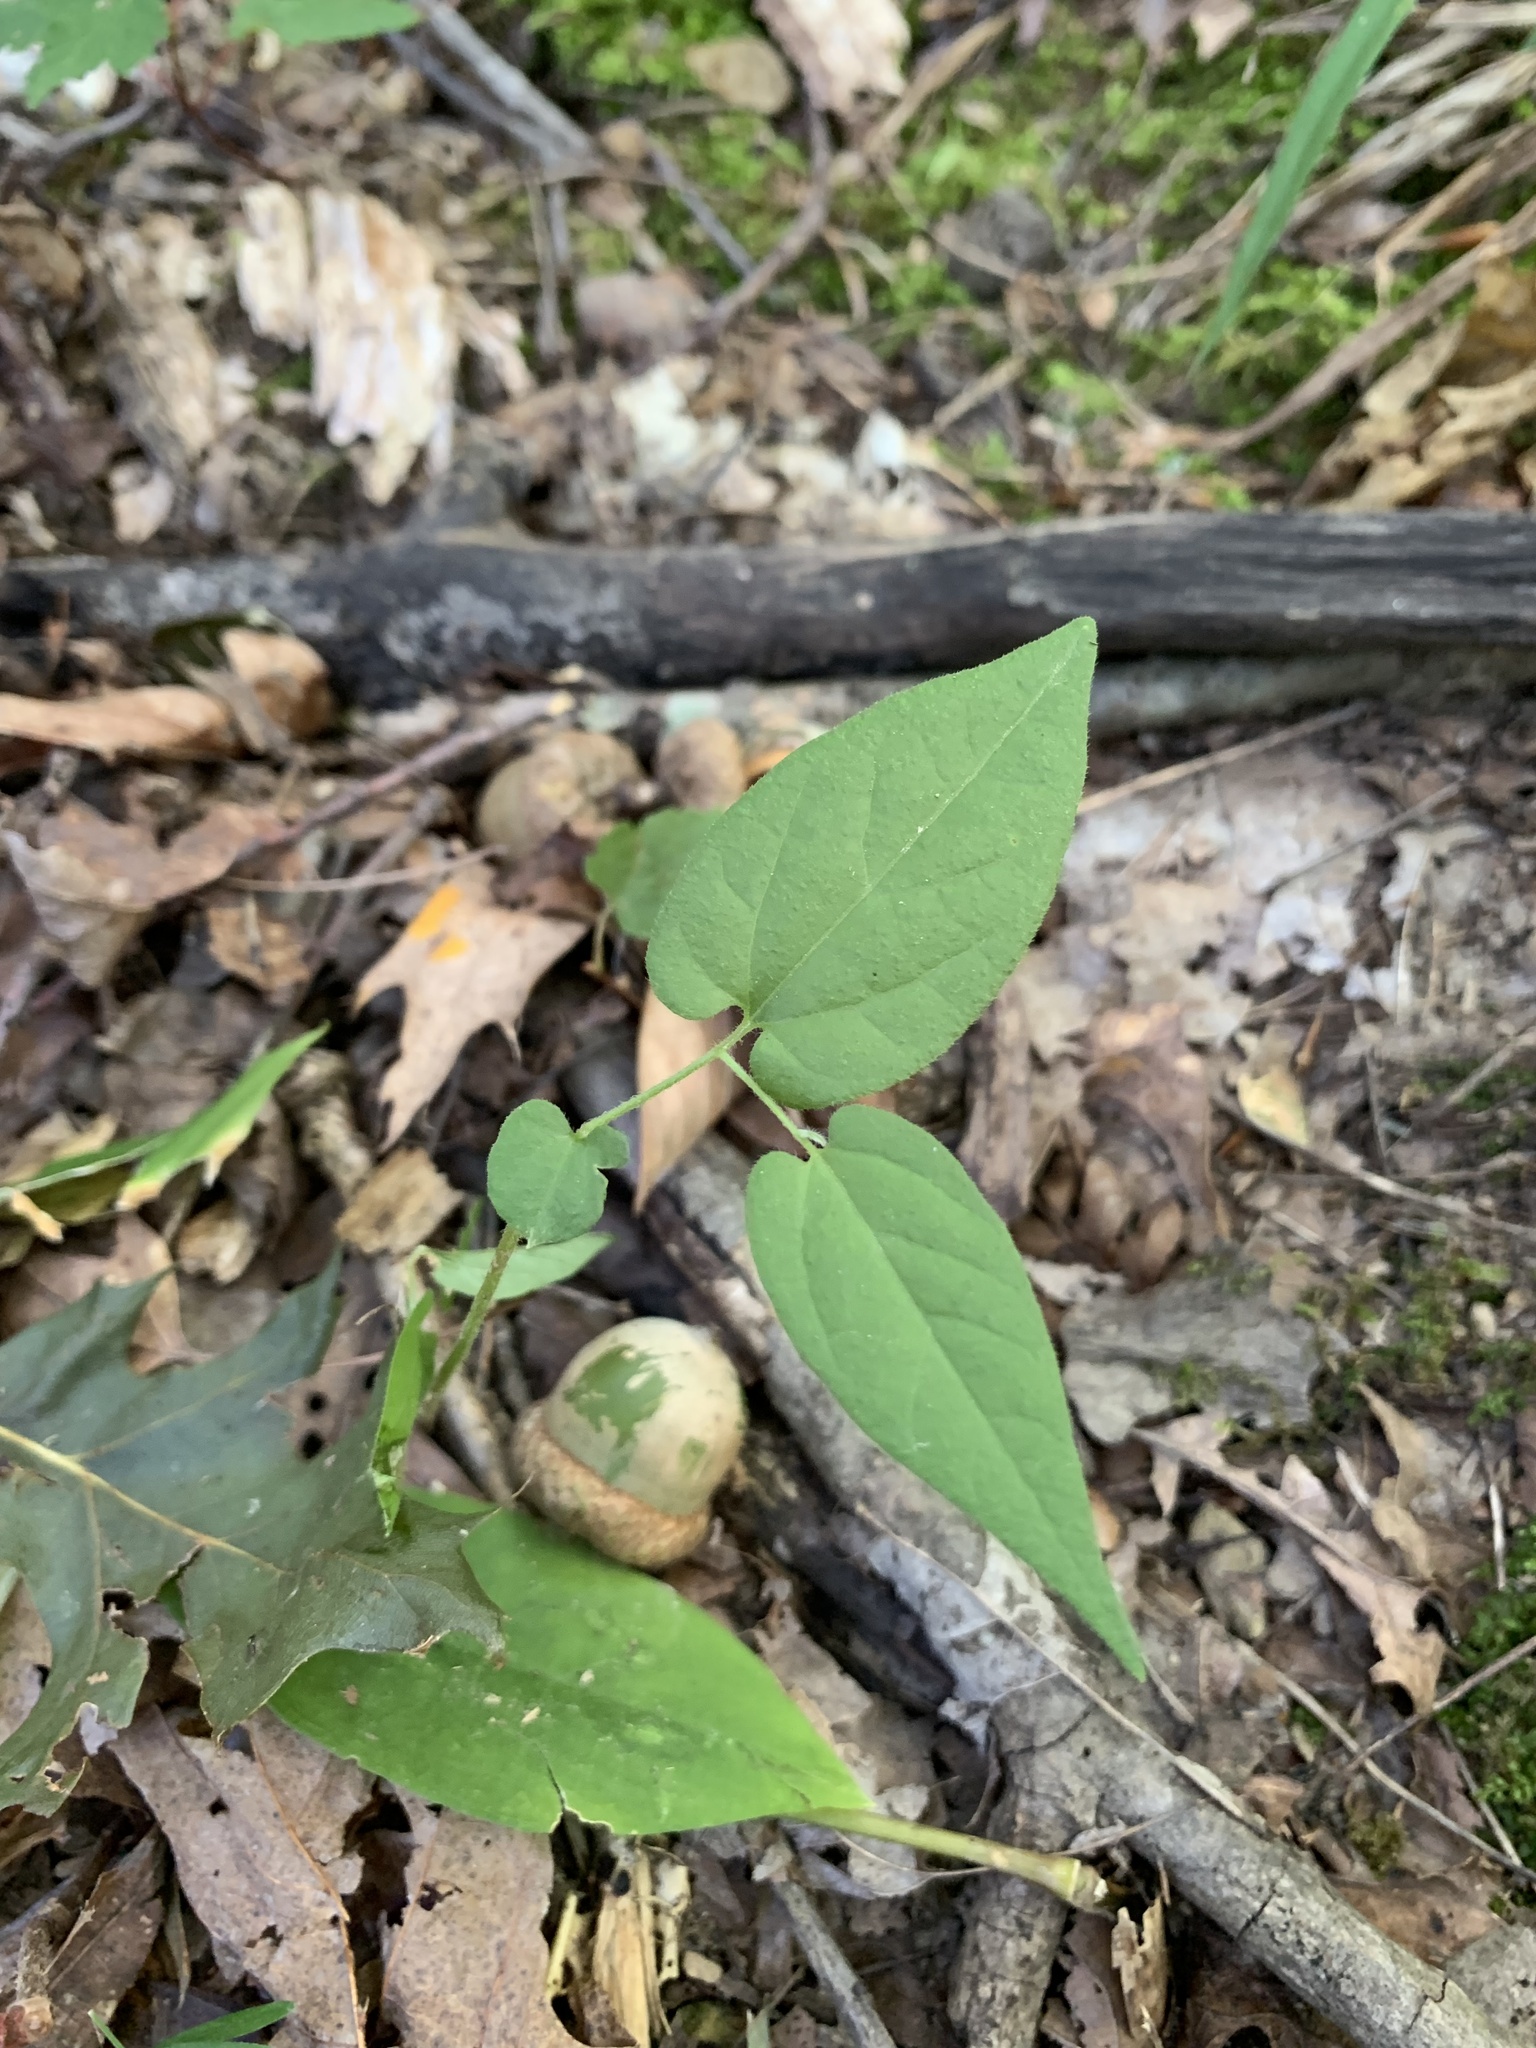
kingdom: Plantae
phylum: Tracheophyta
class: Magnoliopsida
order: Piperales
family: Aristolochiaceae
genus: Endodeca
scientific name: Endodeca serpentaria
